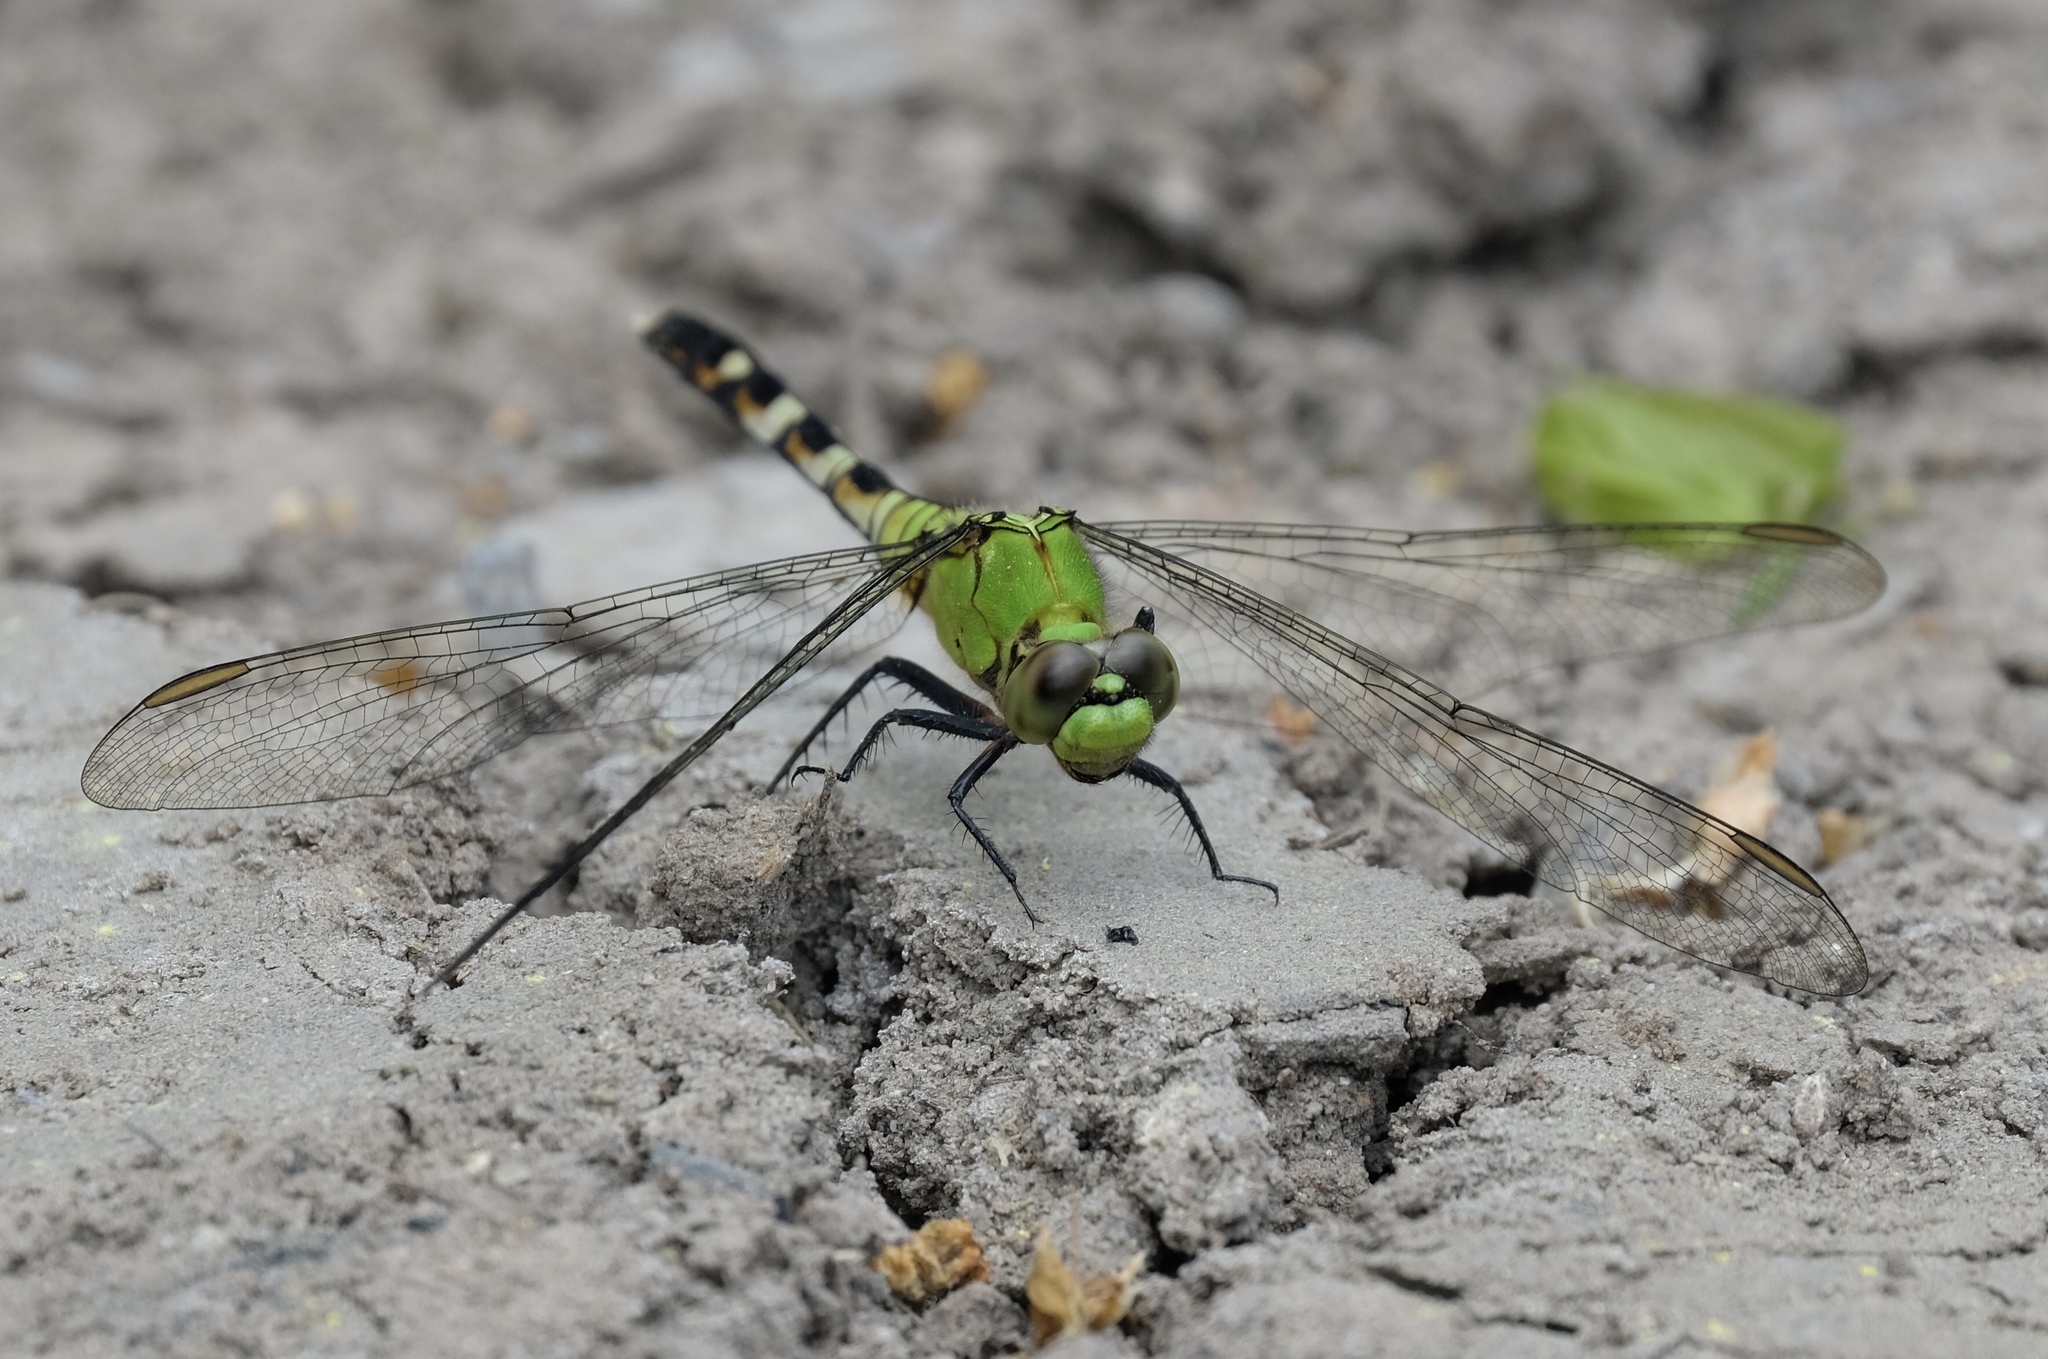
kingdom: Animalia
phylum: Arthropoda
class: Insecta
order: Odonata
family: Libellulidae
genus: Erythemis
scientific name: Erythemis simplicicollis
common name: Eastern pondhawk
